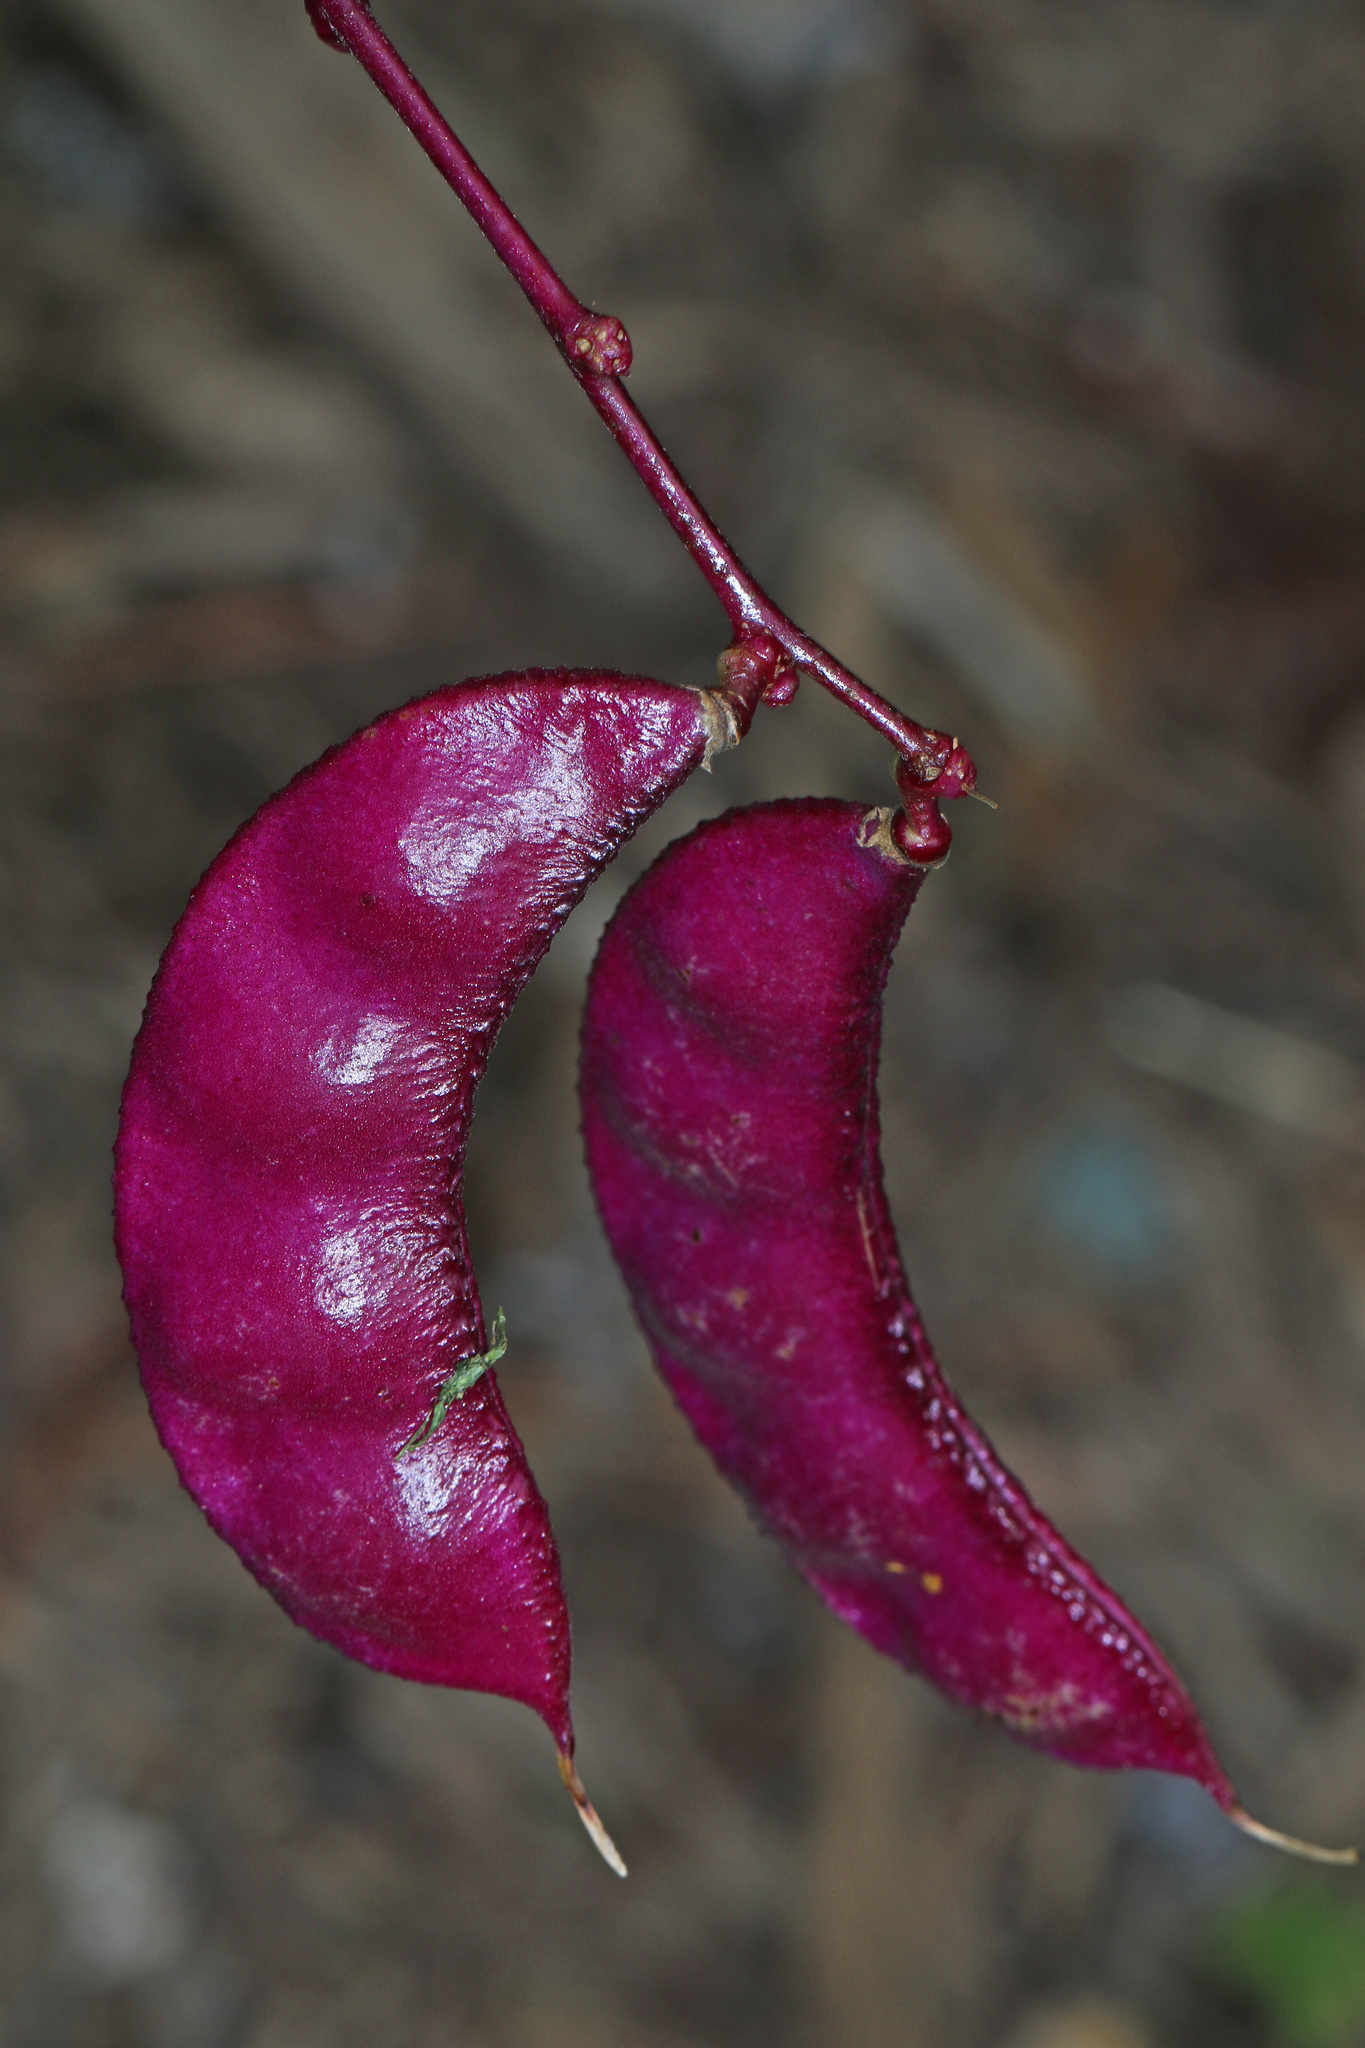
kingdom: Plantae
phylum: Tracheophyta
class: Magnoliopsida
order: Fabales
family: Fabaceae
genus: Lablab
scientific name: Lablab purpureus
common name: Lablab-bean
